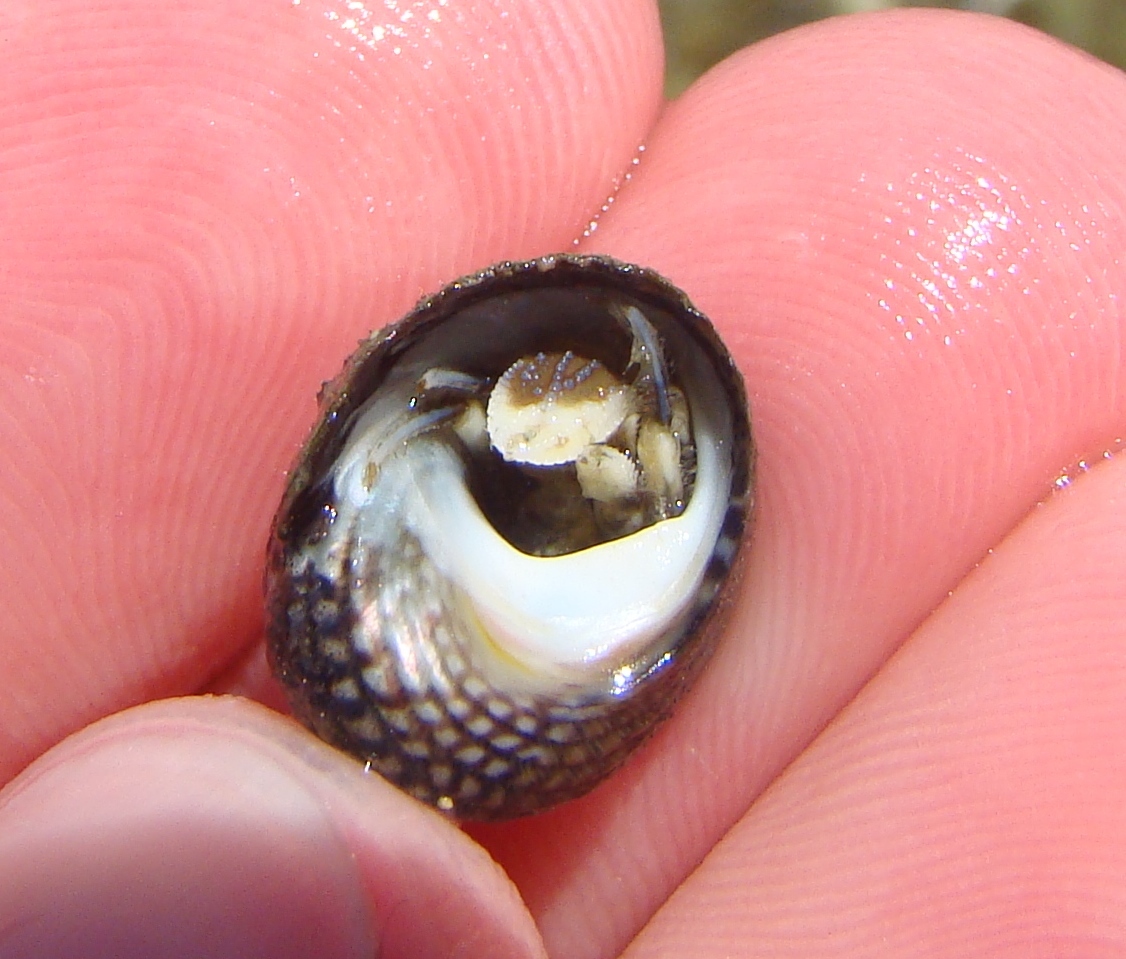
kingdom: Animalia
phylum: Arthropoda
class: Malacostraca
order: Decapoda
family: Paguridae
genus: Pagurus
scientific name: Pagurus novizealandiae
